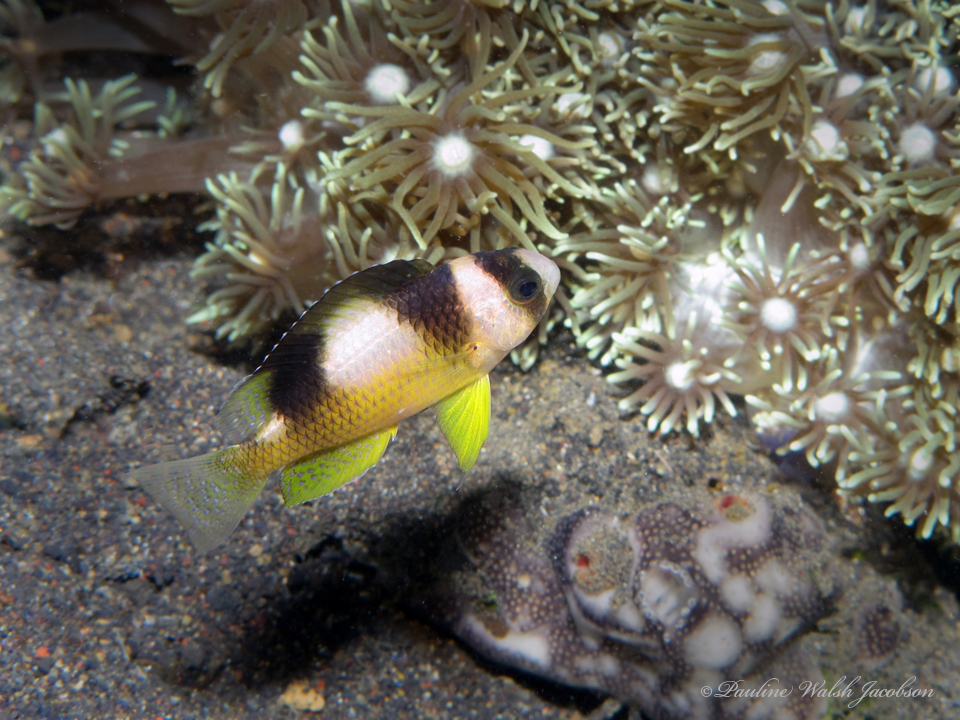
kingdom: Animalia
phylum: Chordata
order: Perciformes
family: Pomacentridae
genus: Amblypomacentrus
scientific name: Amblypomacentrus breviceps
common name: Black-banded demoiselle
